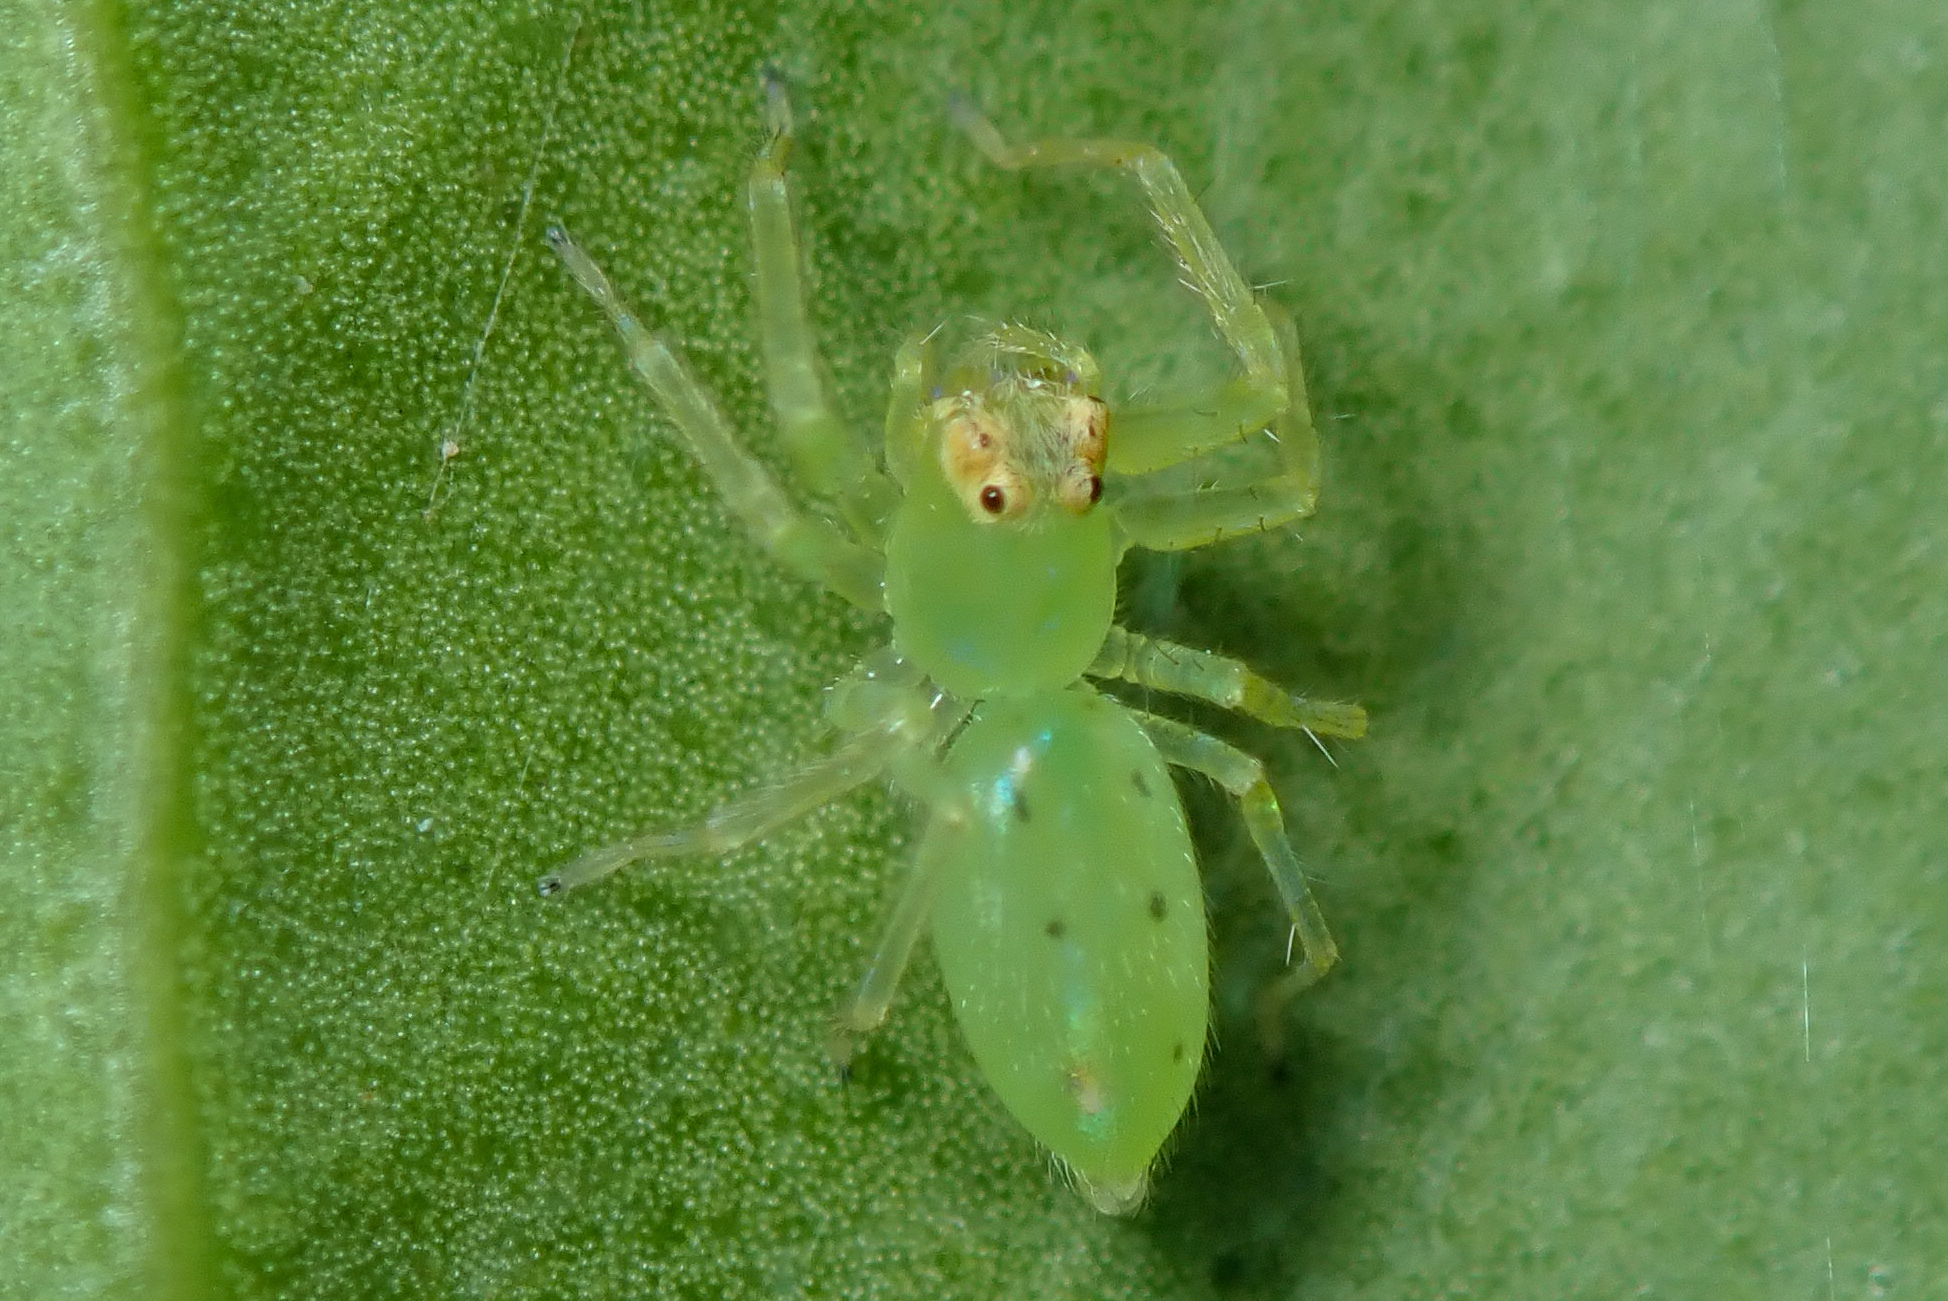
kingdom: Animalia
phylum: Arthropoda
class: Arachnida
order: Araneae
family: Salticidae
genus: Lyssomanes
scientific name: Lyssomanes viridis
